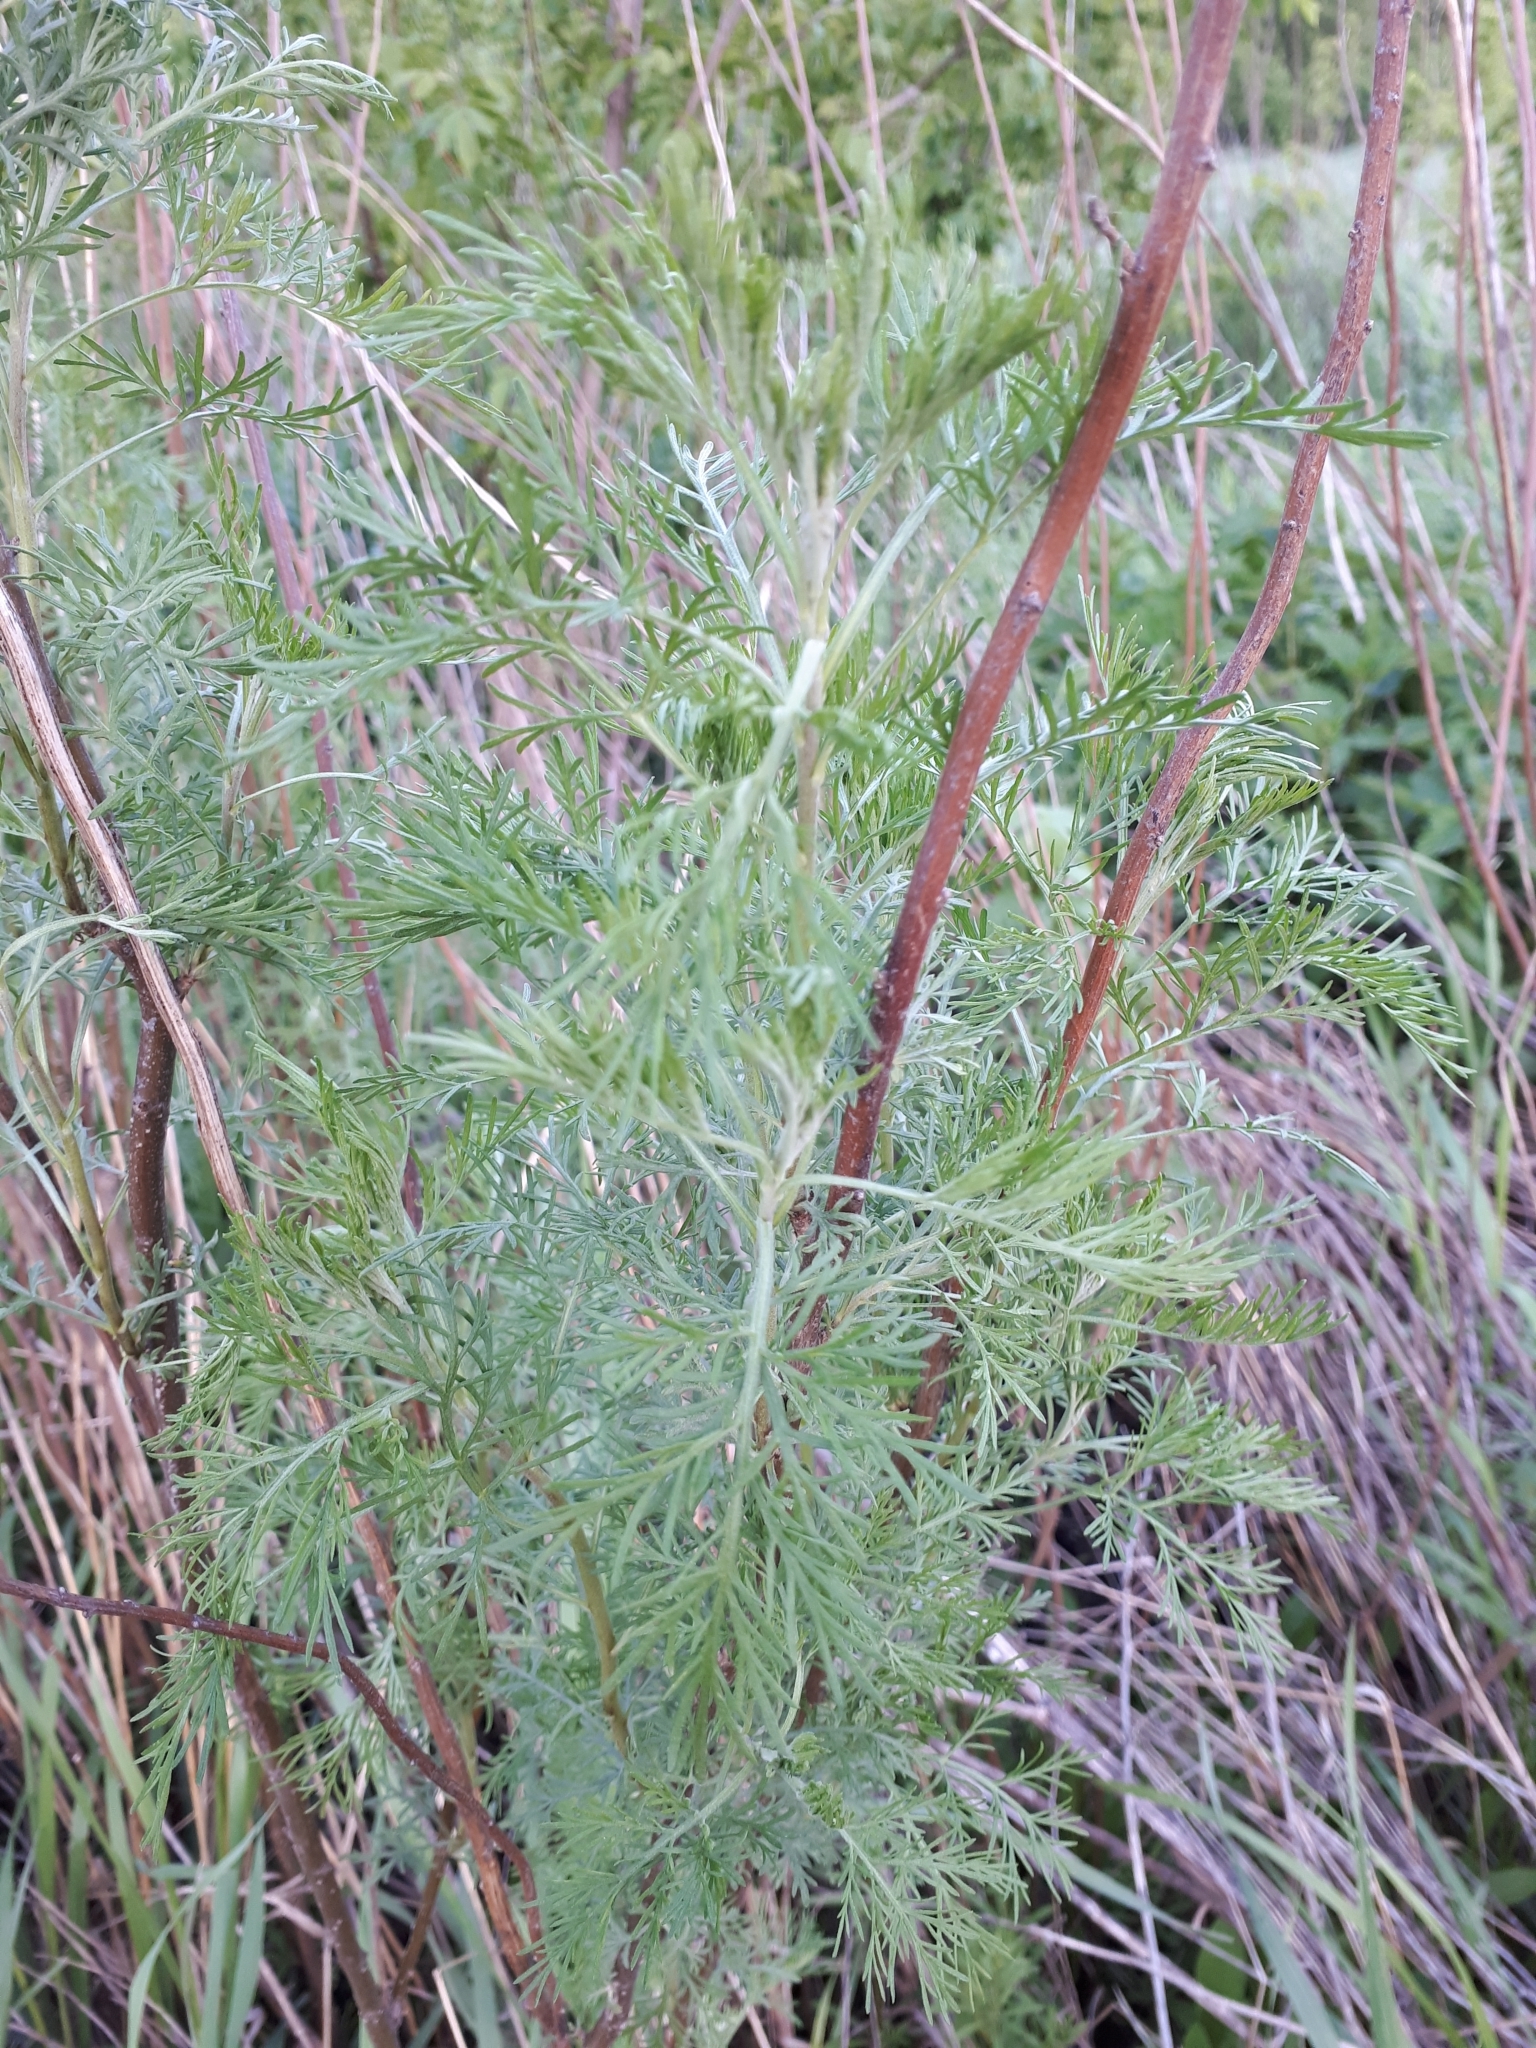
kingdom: Plantae
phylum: Tracheophyta
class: Magnoliopsida
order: Asterales
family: Asteraceae
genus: Artemisia
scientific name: Artemisia abrotanum
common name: Southernwood
